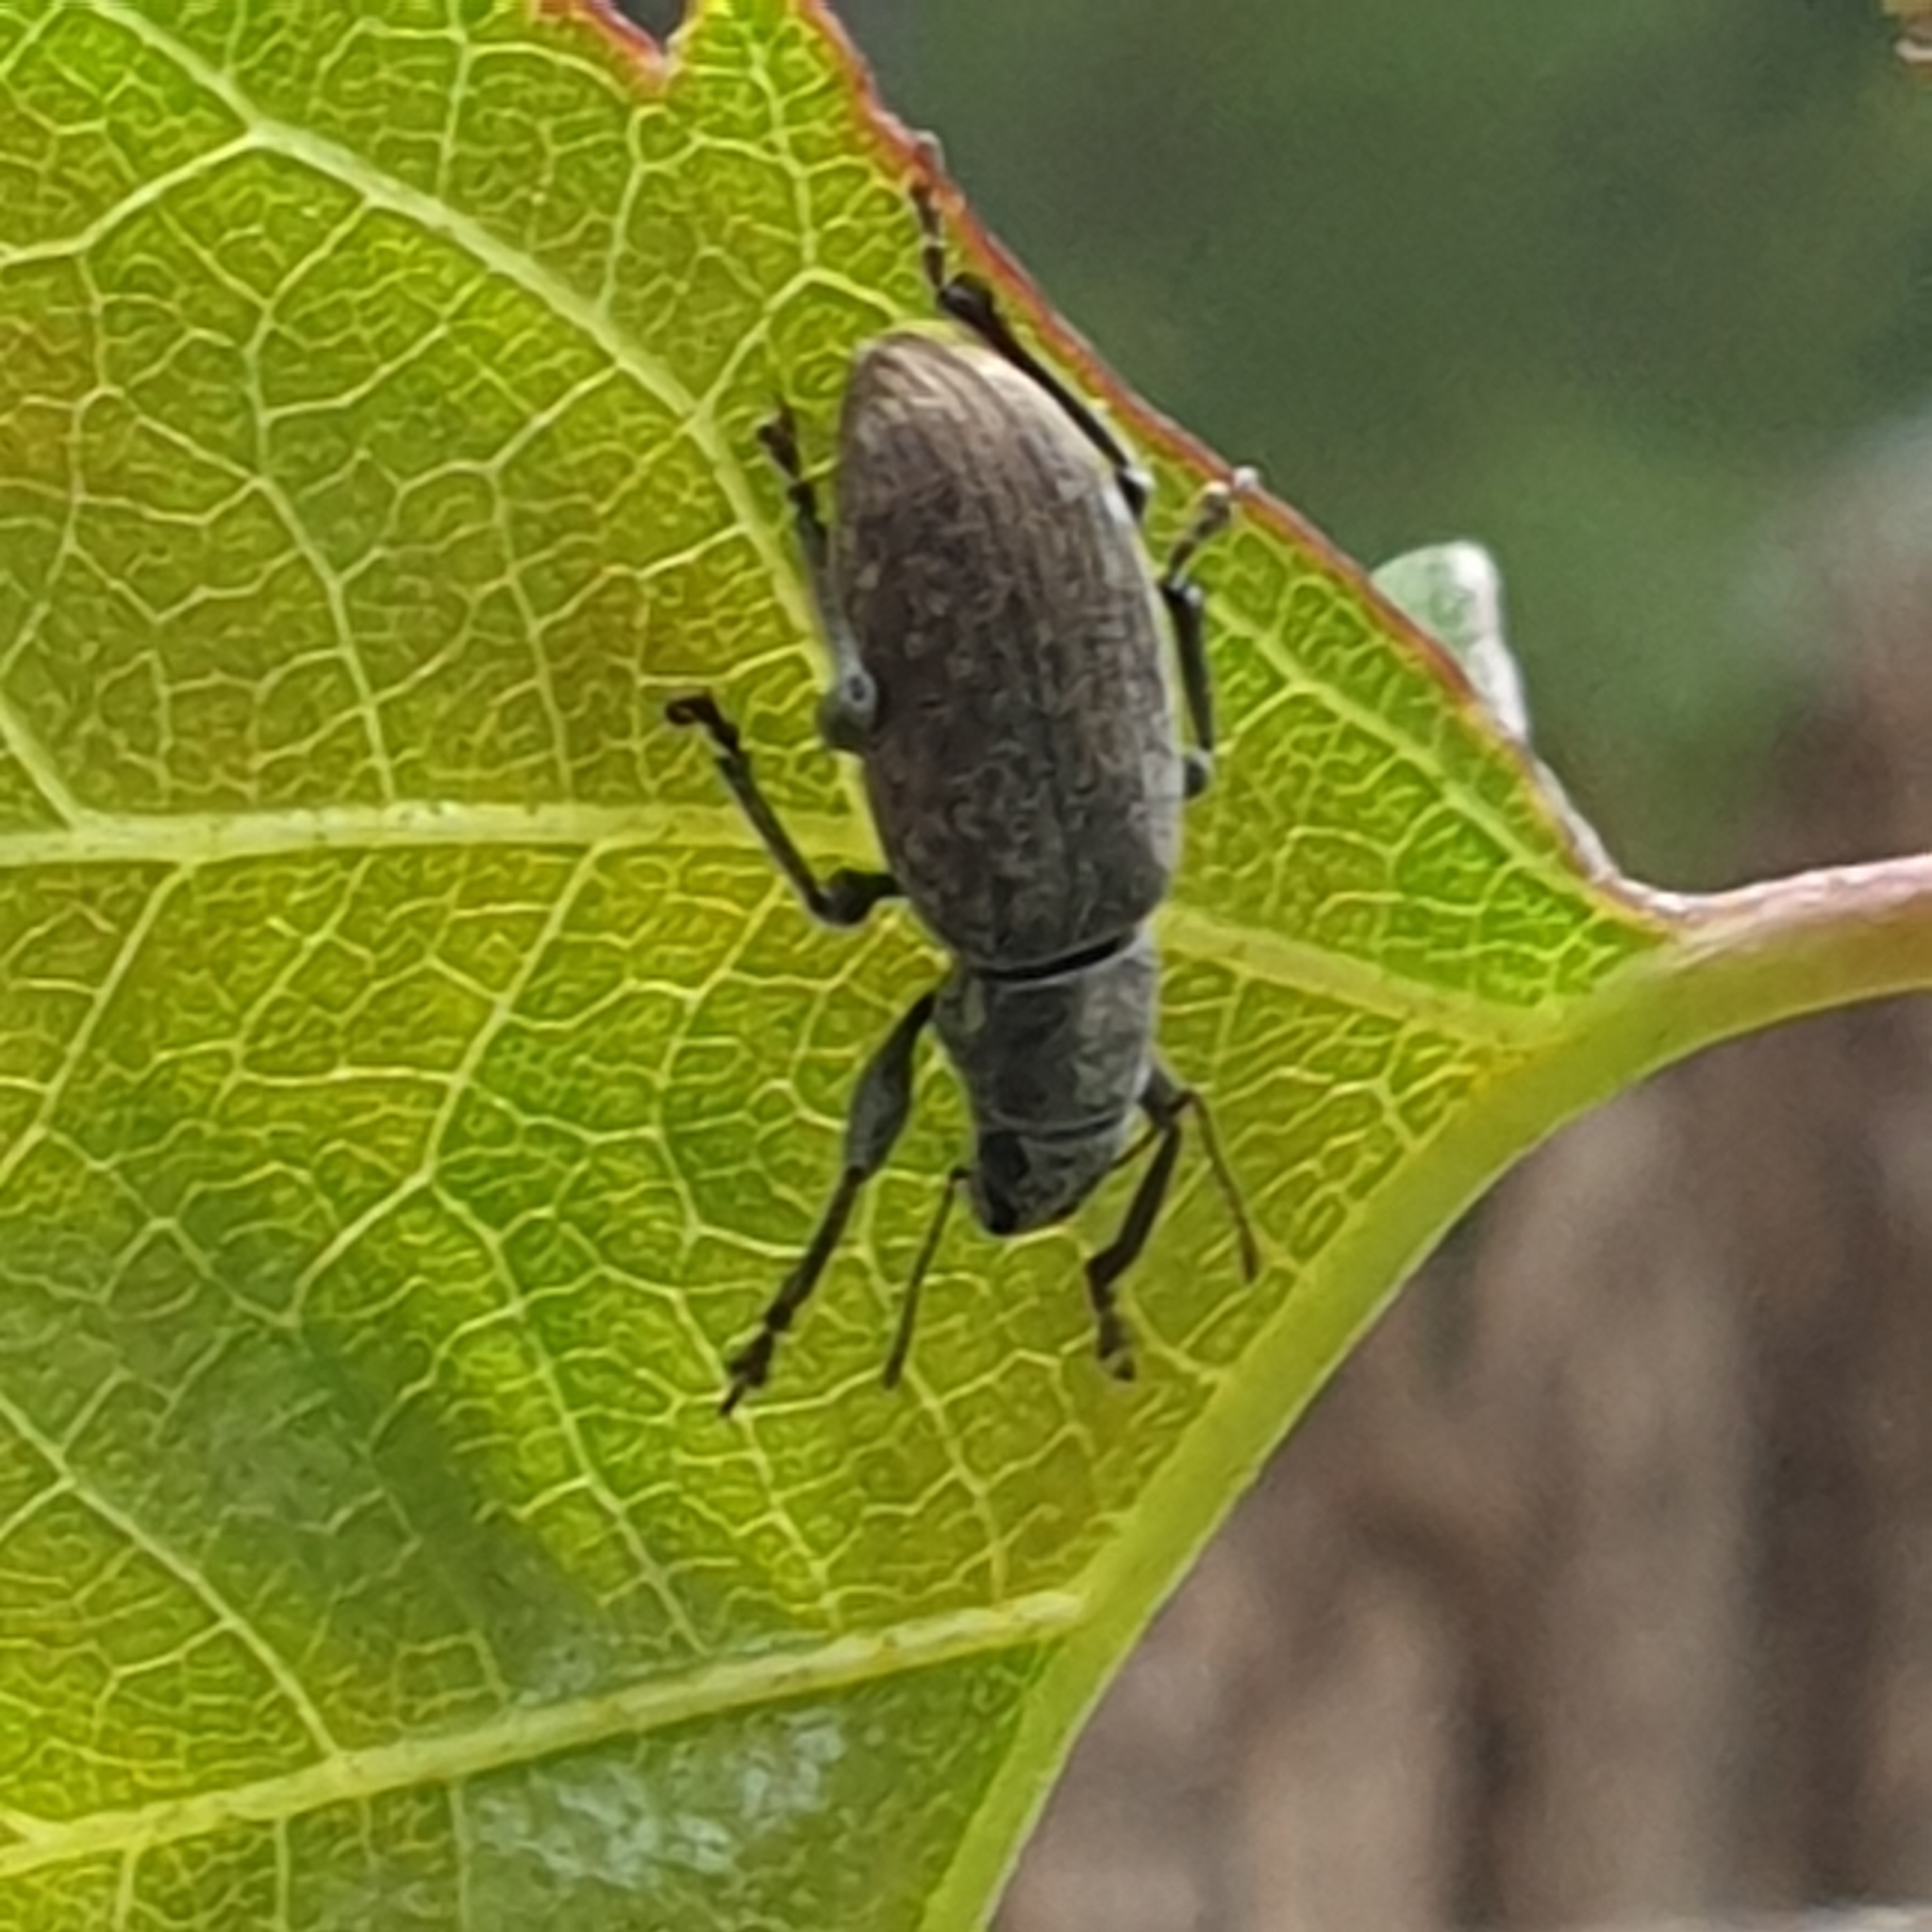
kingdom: Animalia
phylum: Arthropoda
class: Insecta
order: Coleoptera
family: Curculionidae
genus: Brachyderes
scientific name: Brachyderes incanus
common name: Weevil
